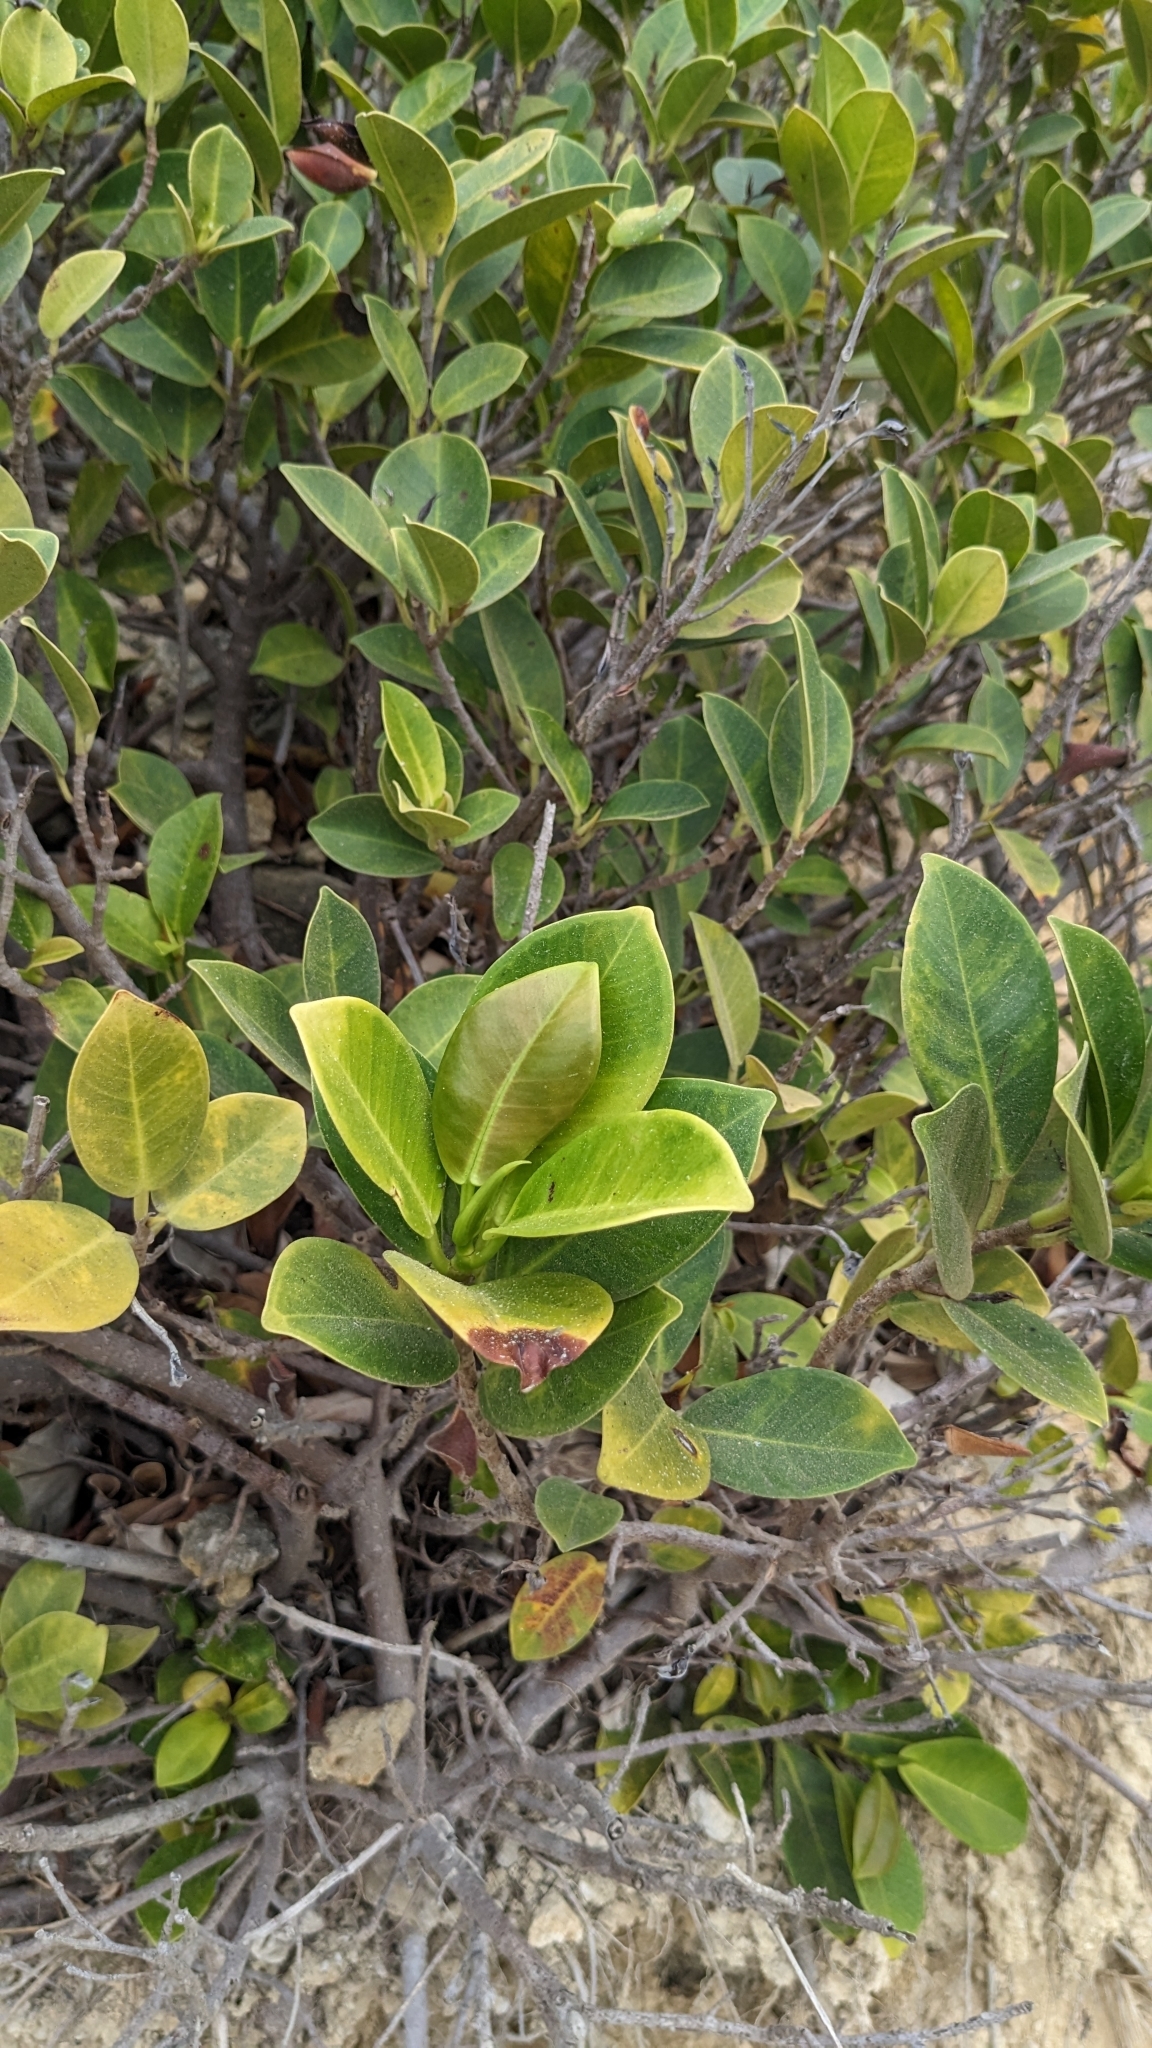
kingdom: Plantae
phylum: Tracheophyta
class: Magnoliopsida
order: Rosales
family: Moraceae
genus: Ficus
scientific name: Ficus microcarpa
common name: Chinese banyan
